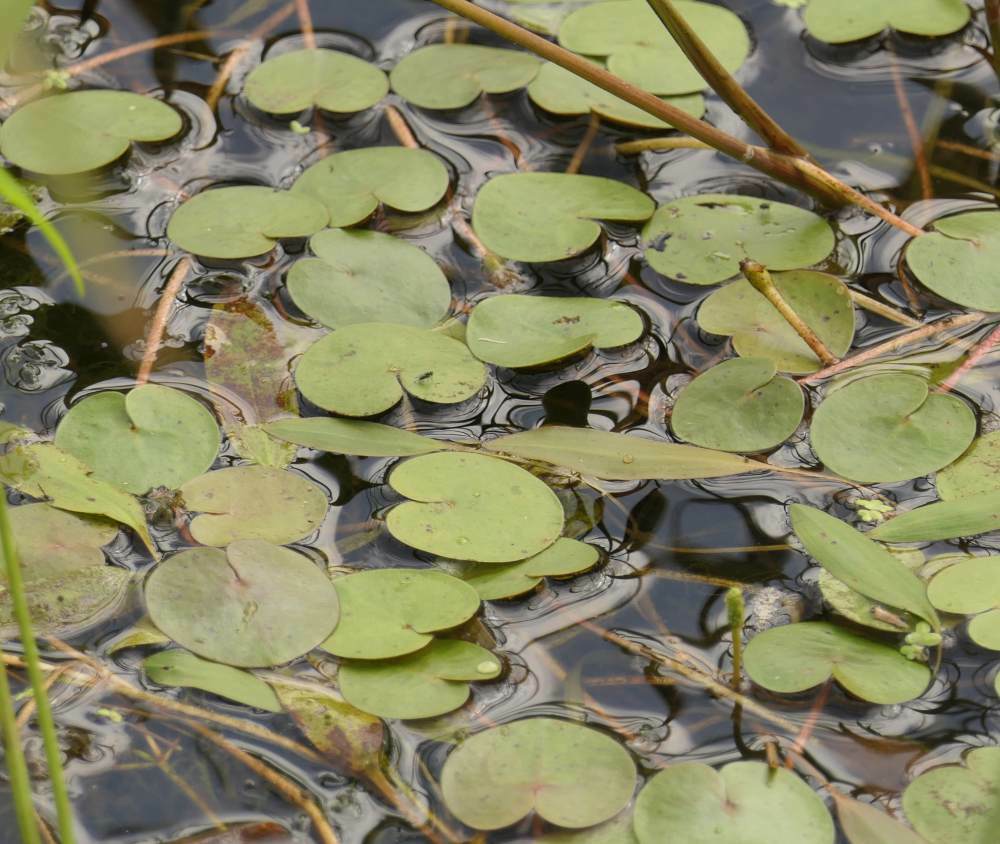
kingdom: Plantae
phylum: Tracheophyta
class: Liliopsida
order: Alismatales
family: Hydrocharitaceae
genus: Hydrocharis
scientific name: Hydrocharis morsus-ranae
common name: Frogbit
